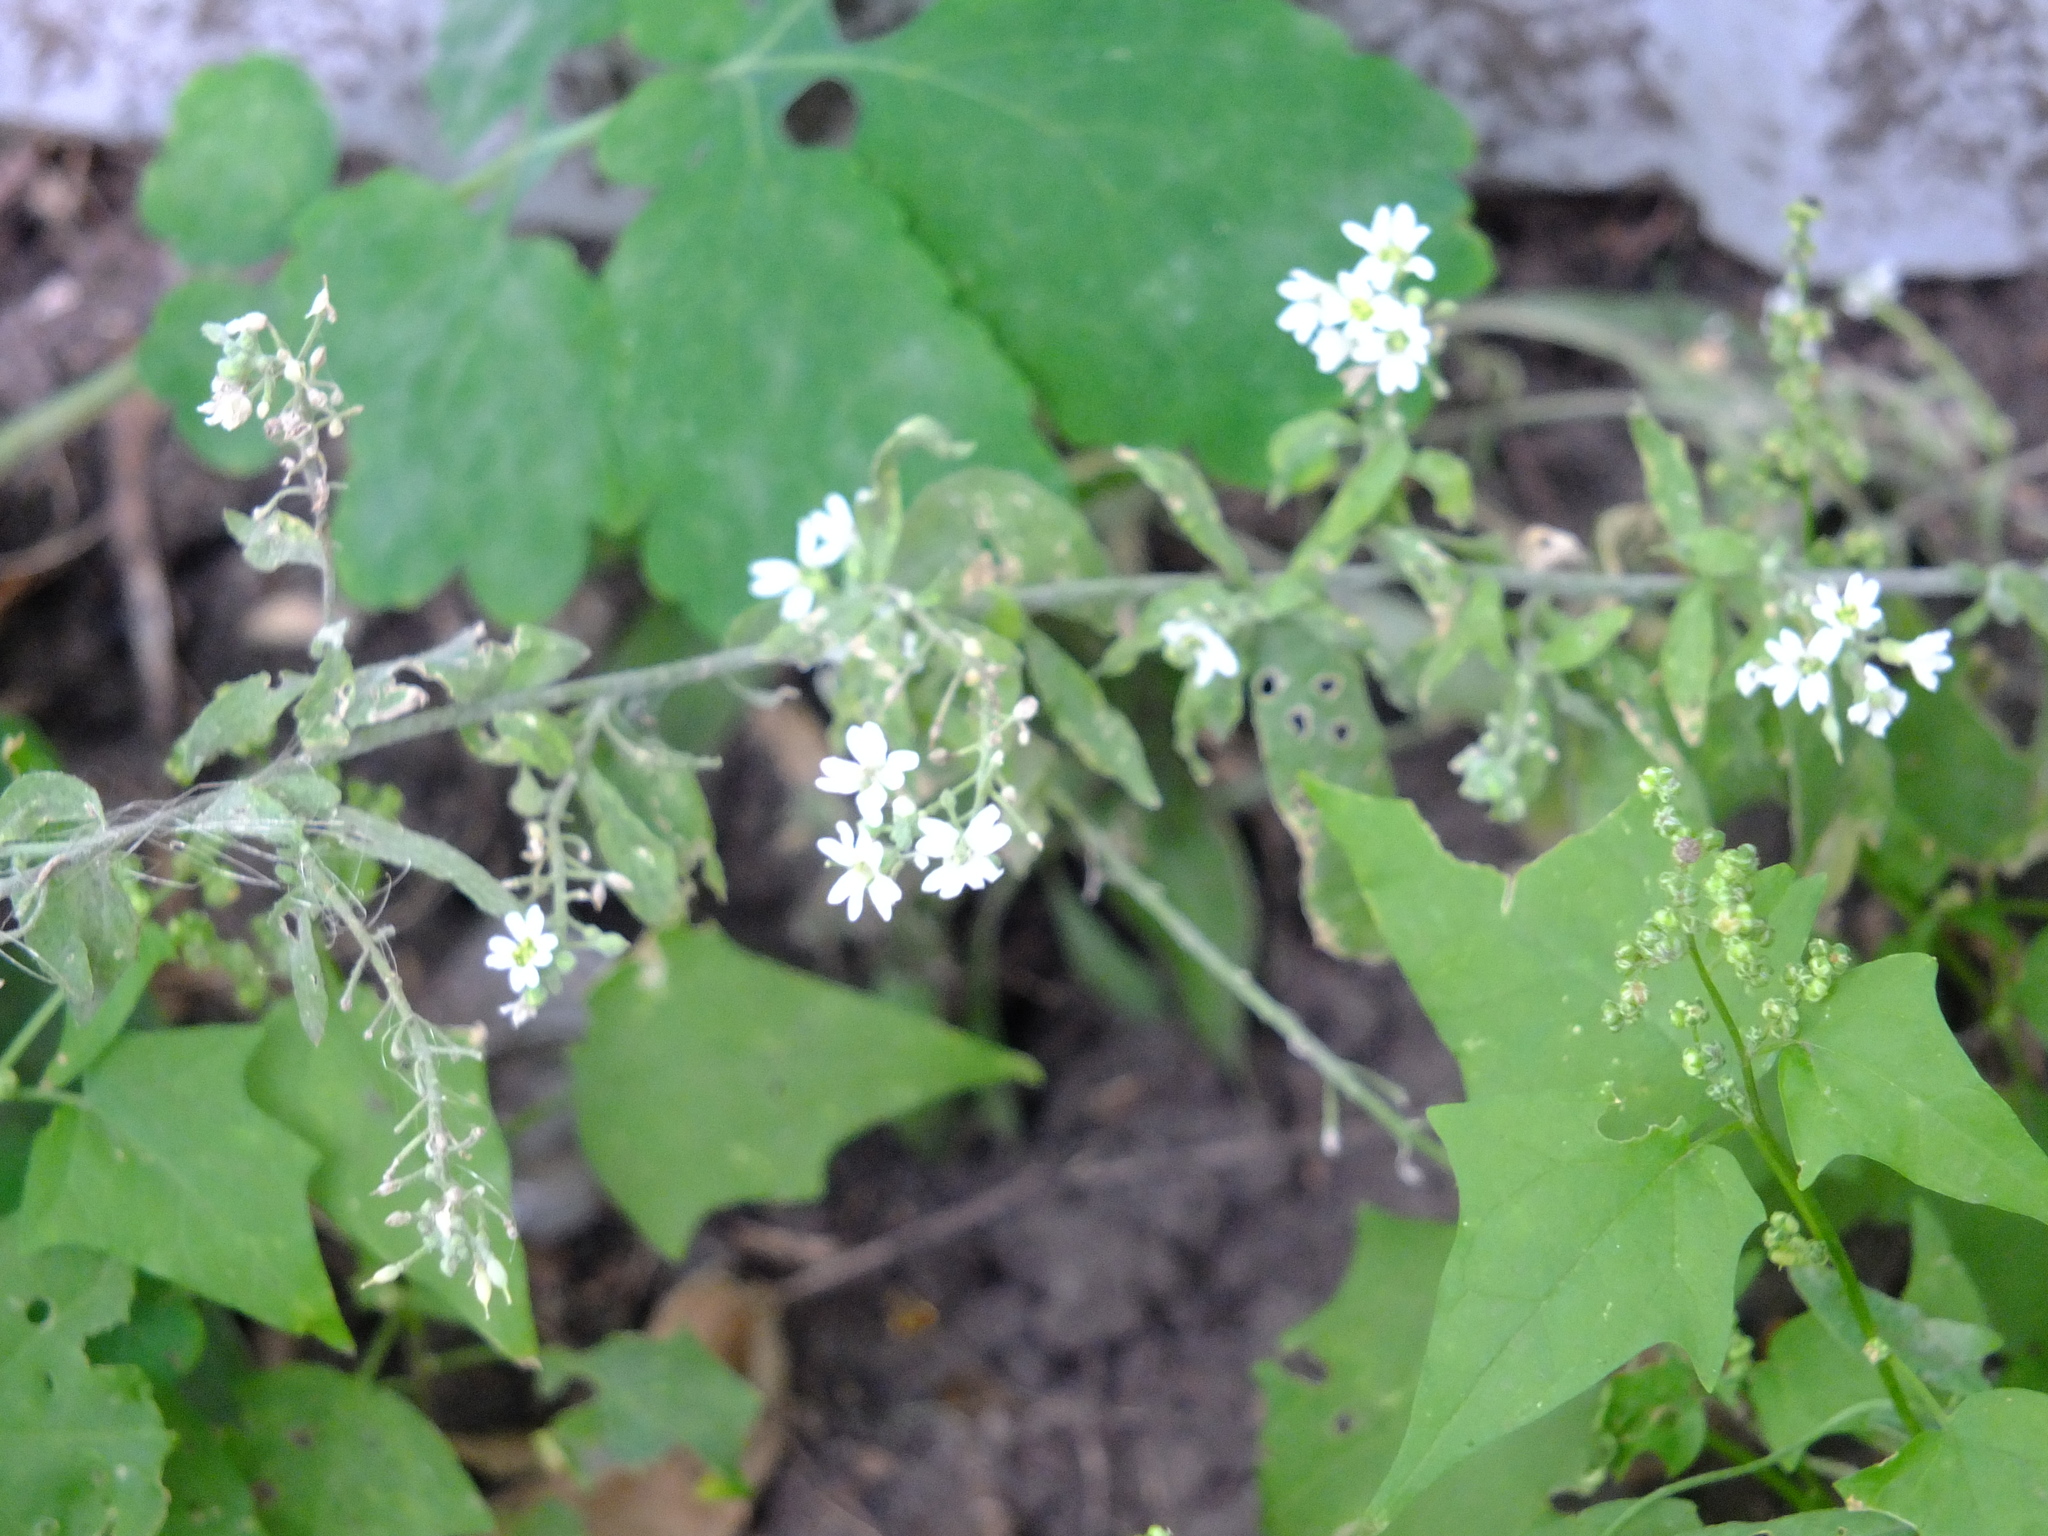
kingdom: Plantae
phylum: Tracheophyta
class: Magnoliopsida
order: Brassicales
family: Brassicaceae
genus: Berteroa
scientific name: Berteroa incana
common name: Hoary alison
